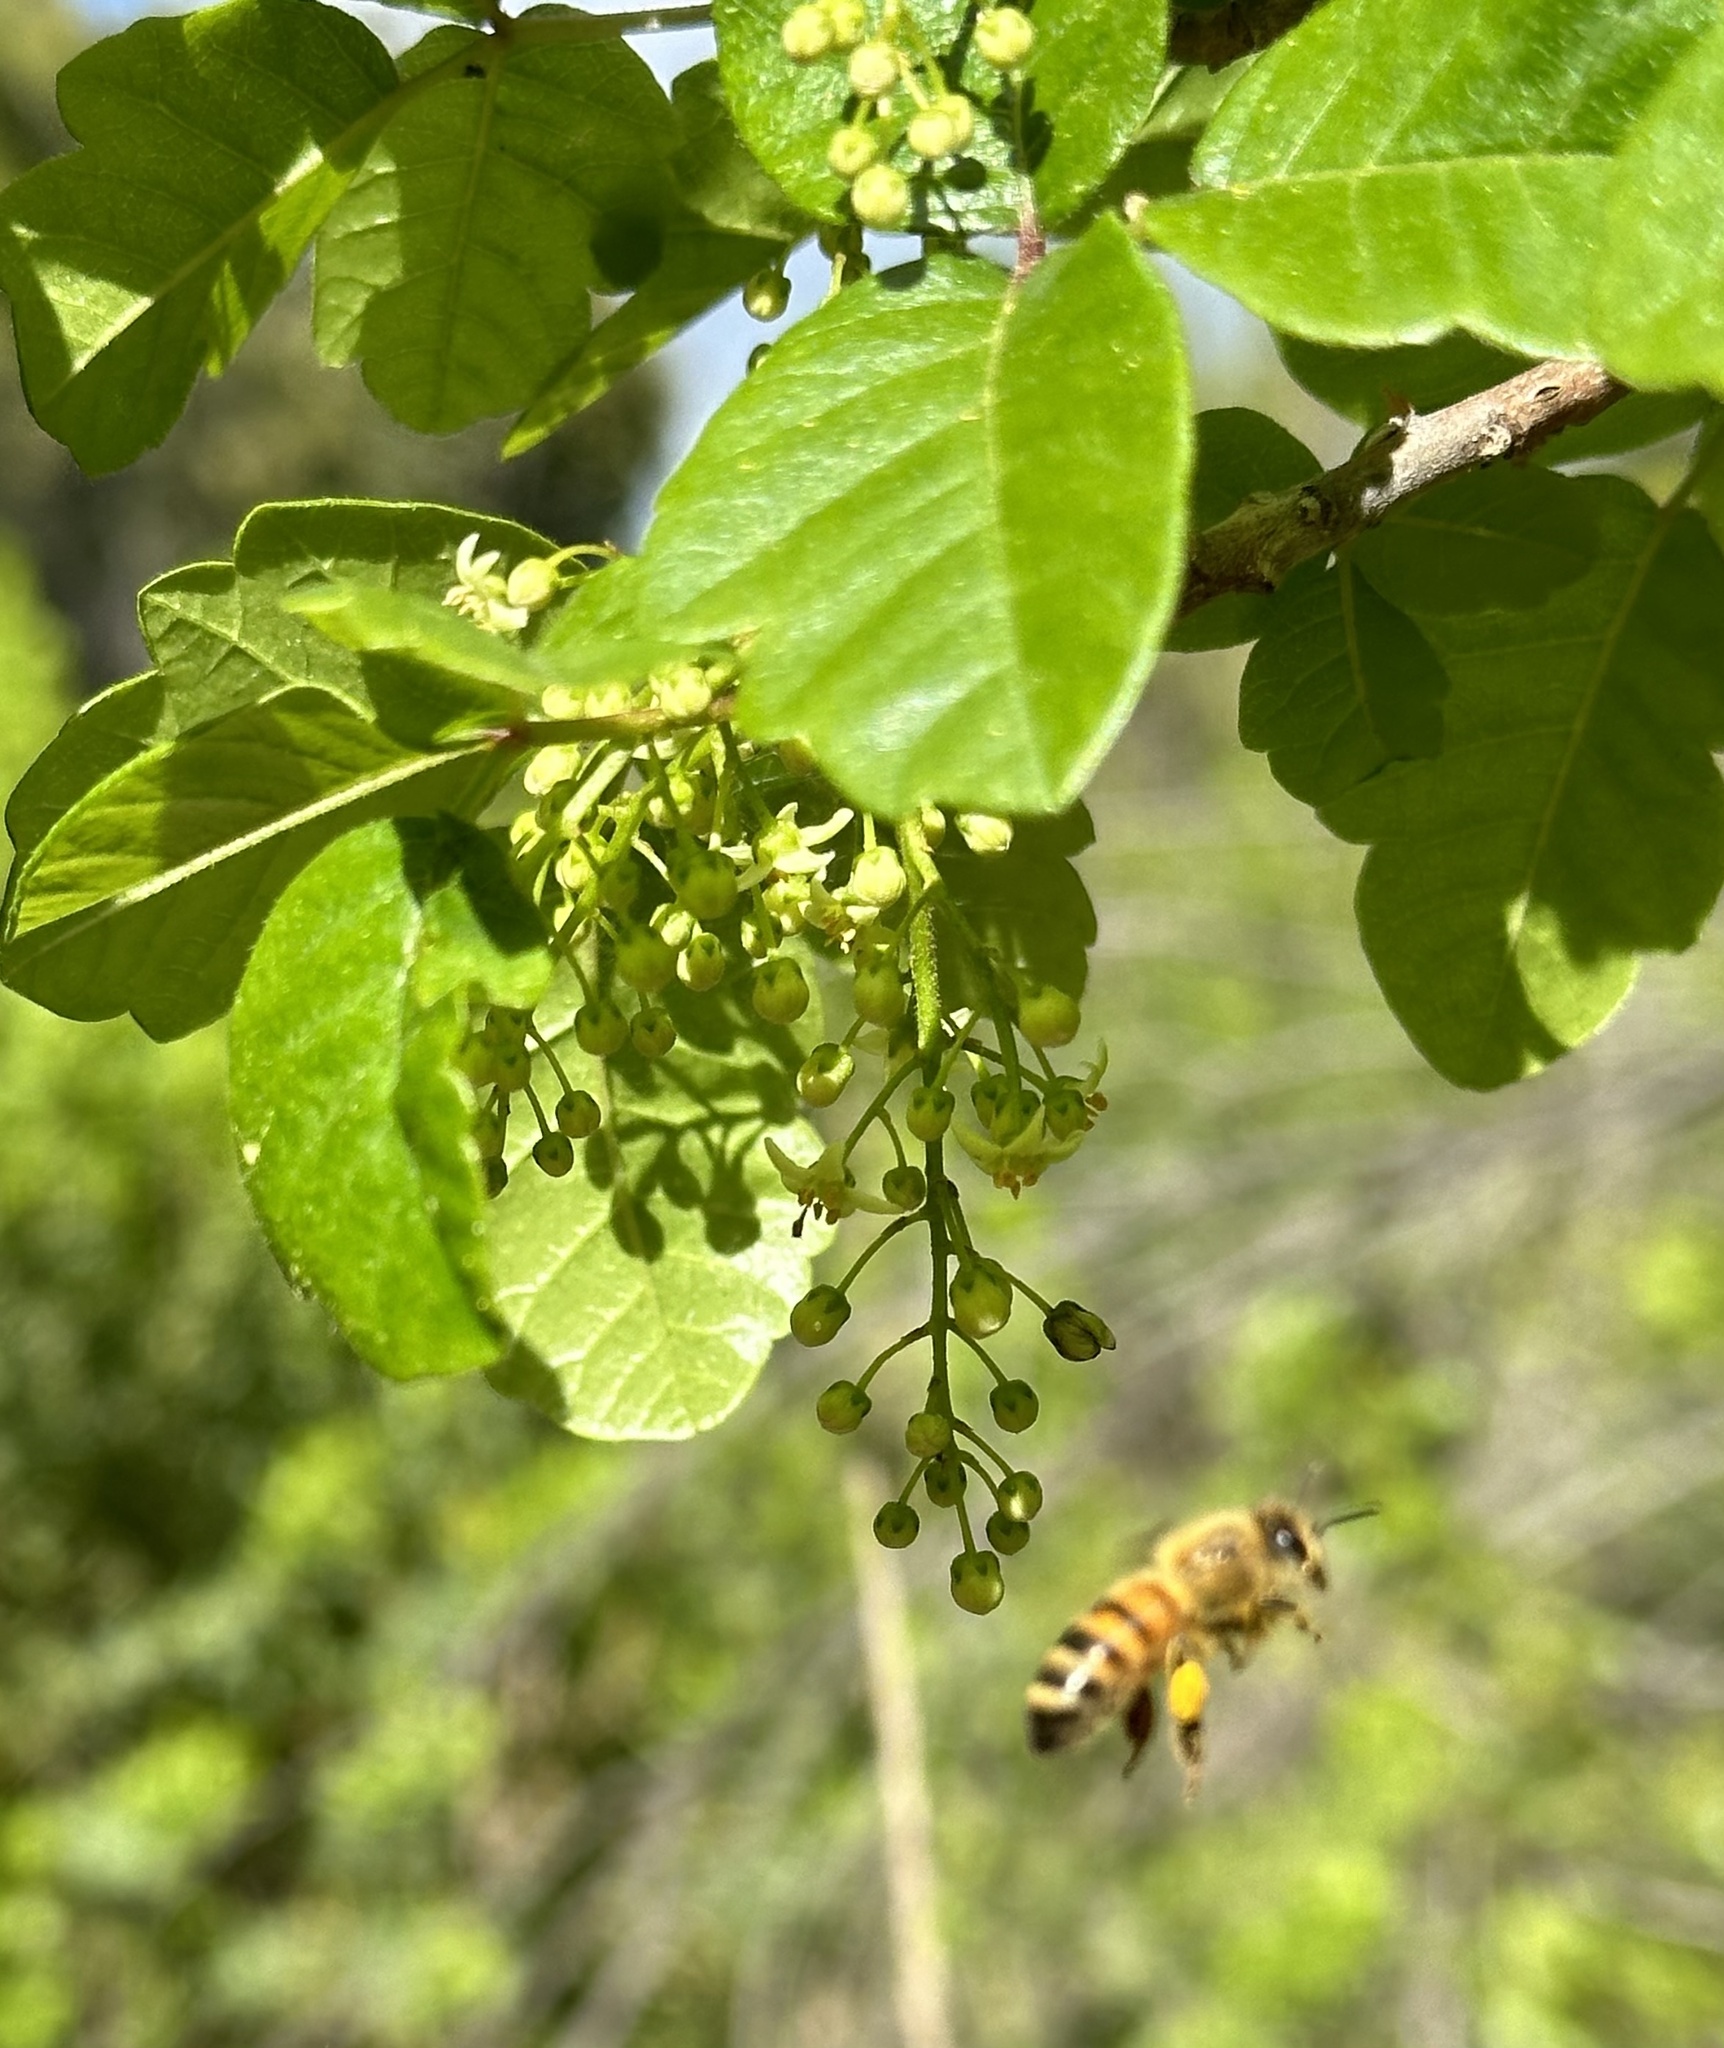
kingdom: Animalia
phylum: Arthropoda
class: Insecta
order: Hymenoptera
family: Apidae
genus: Apis
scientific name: Apis mellifera
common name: Honey bee
